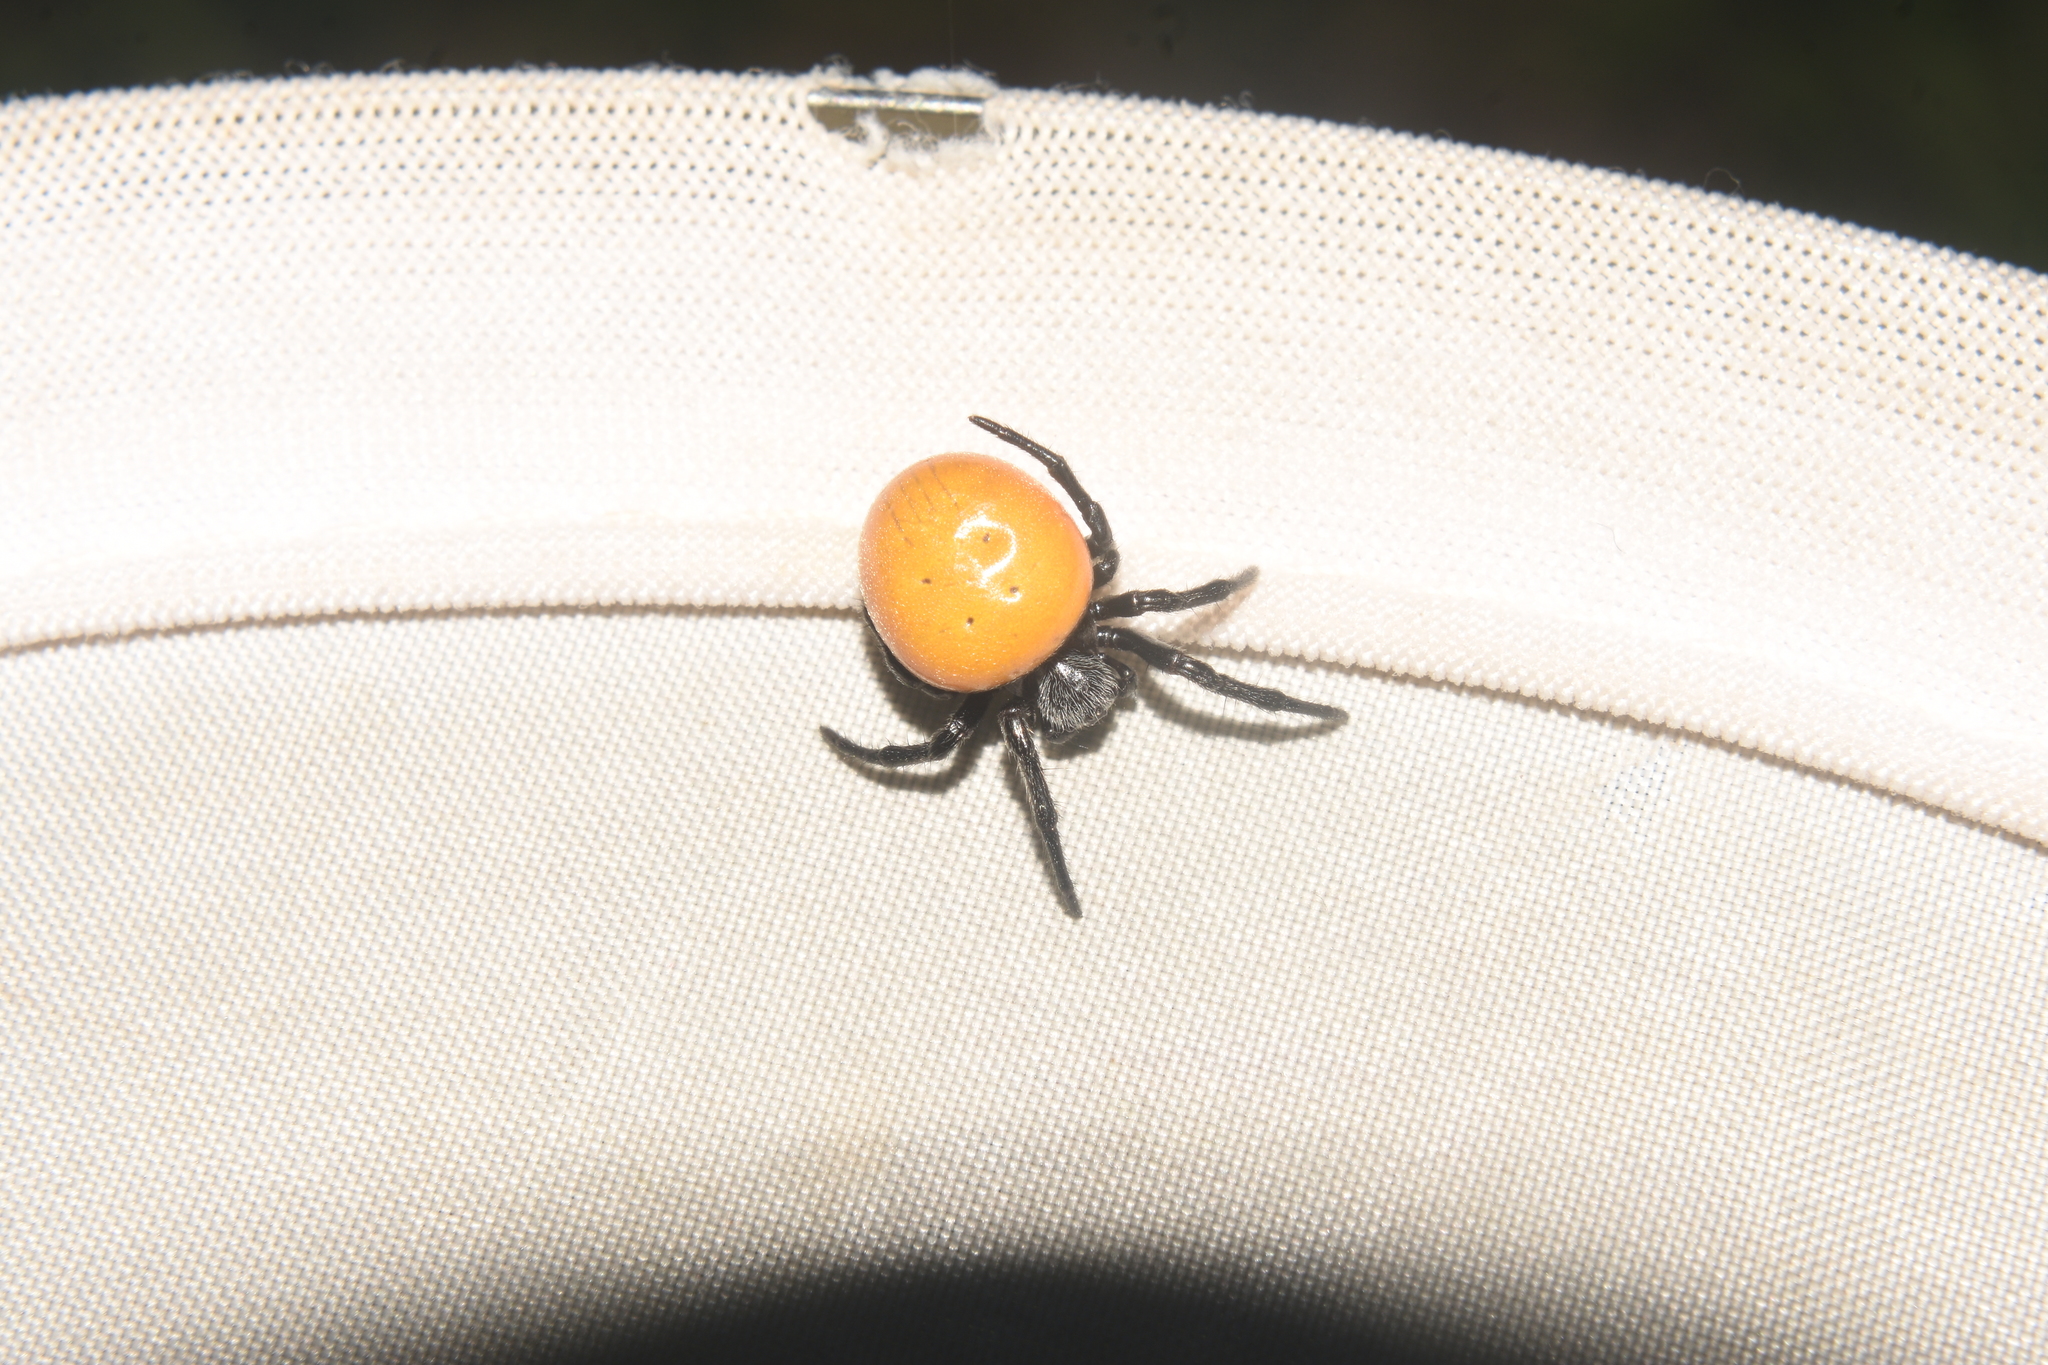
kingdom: Animalia
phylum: Arthropoda
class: Arachnida
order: Araneae
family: Araneidae
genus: Araneus
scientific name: Araneus sernai
